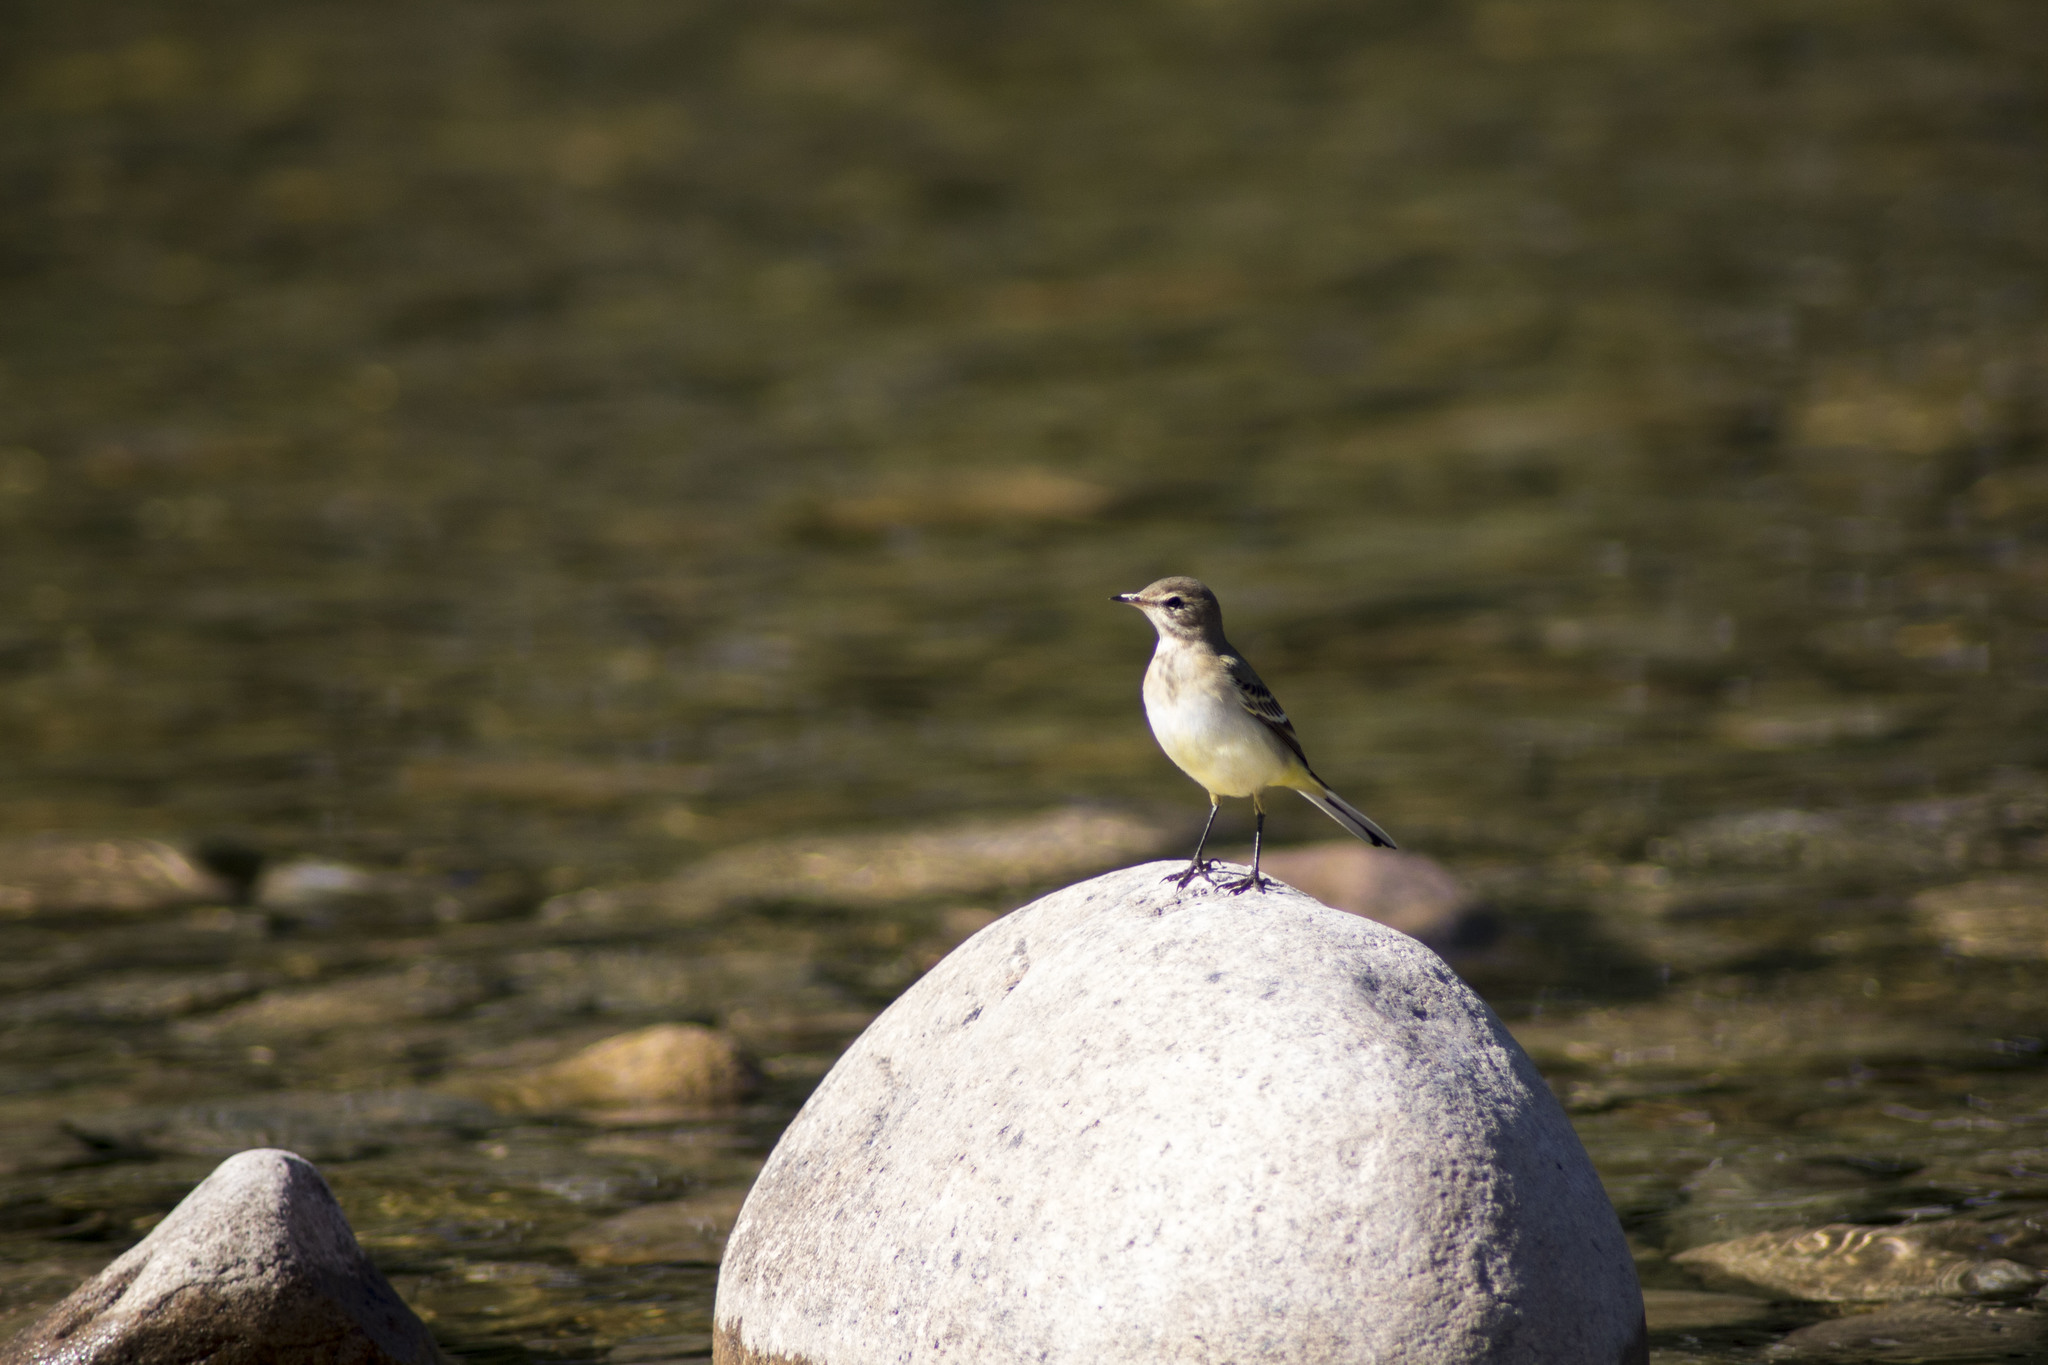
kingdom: Animalia
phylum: Chordata
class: Aves
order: Passeriformes
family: Motacillidae
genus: Motacilla
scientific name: Motacilla flava
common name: Western yellow wagtail
